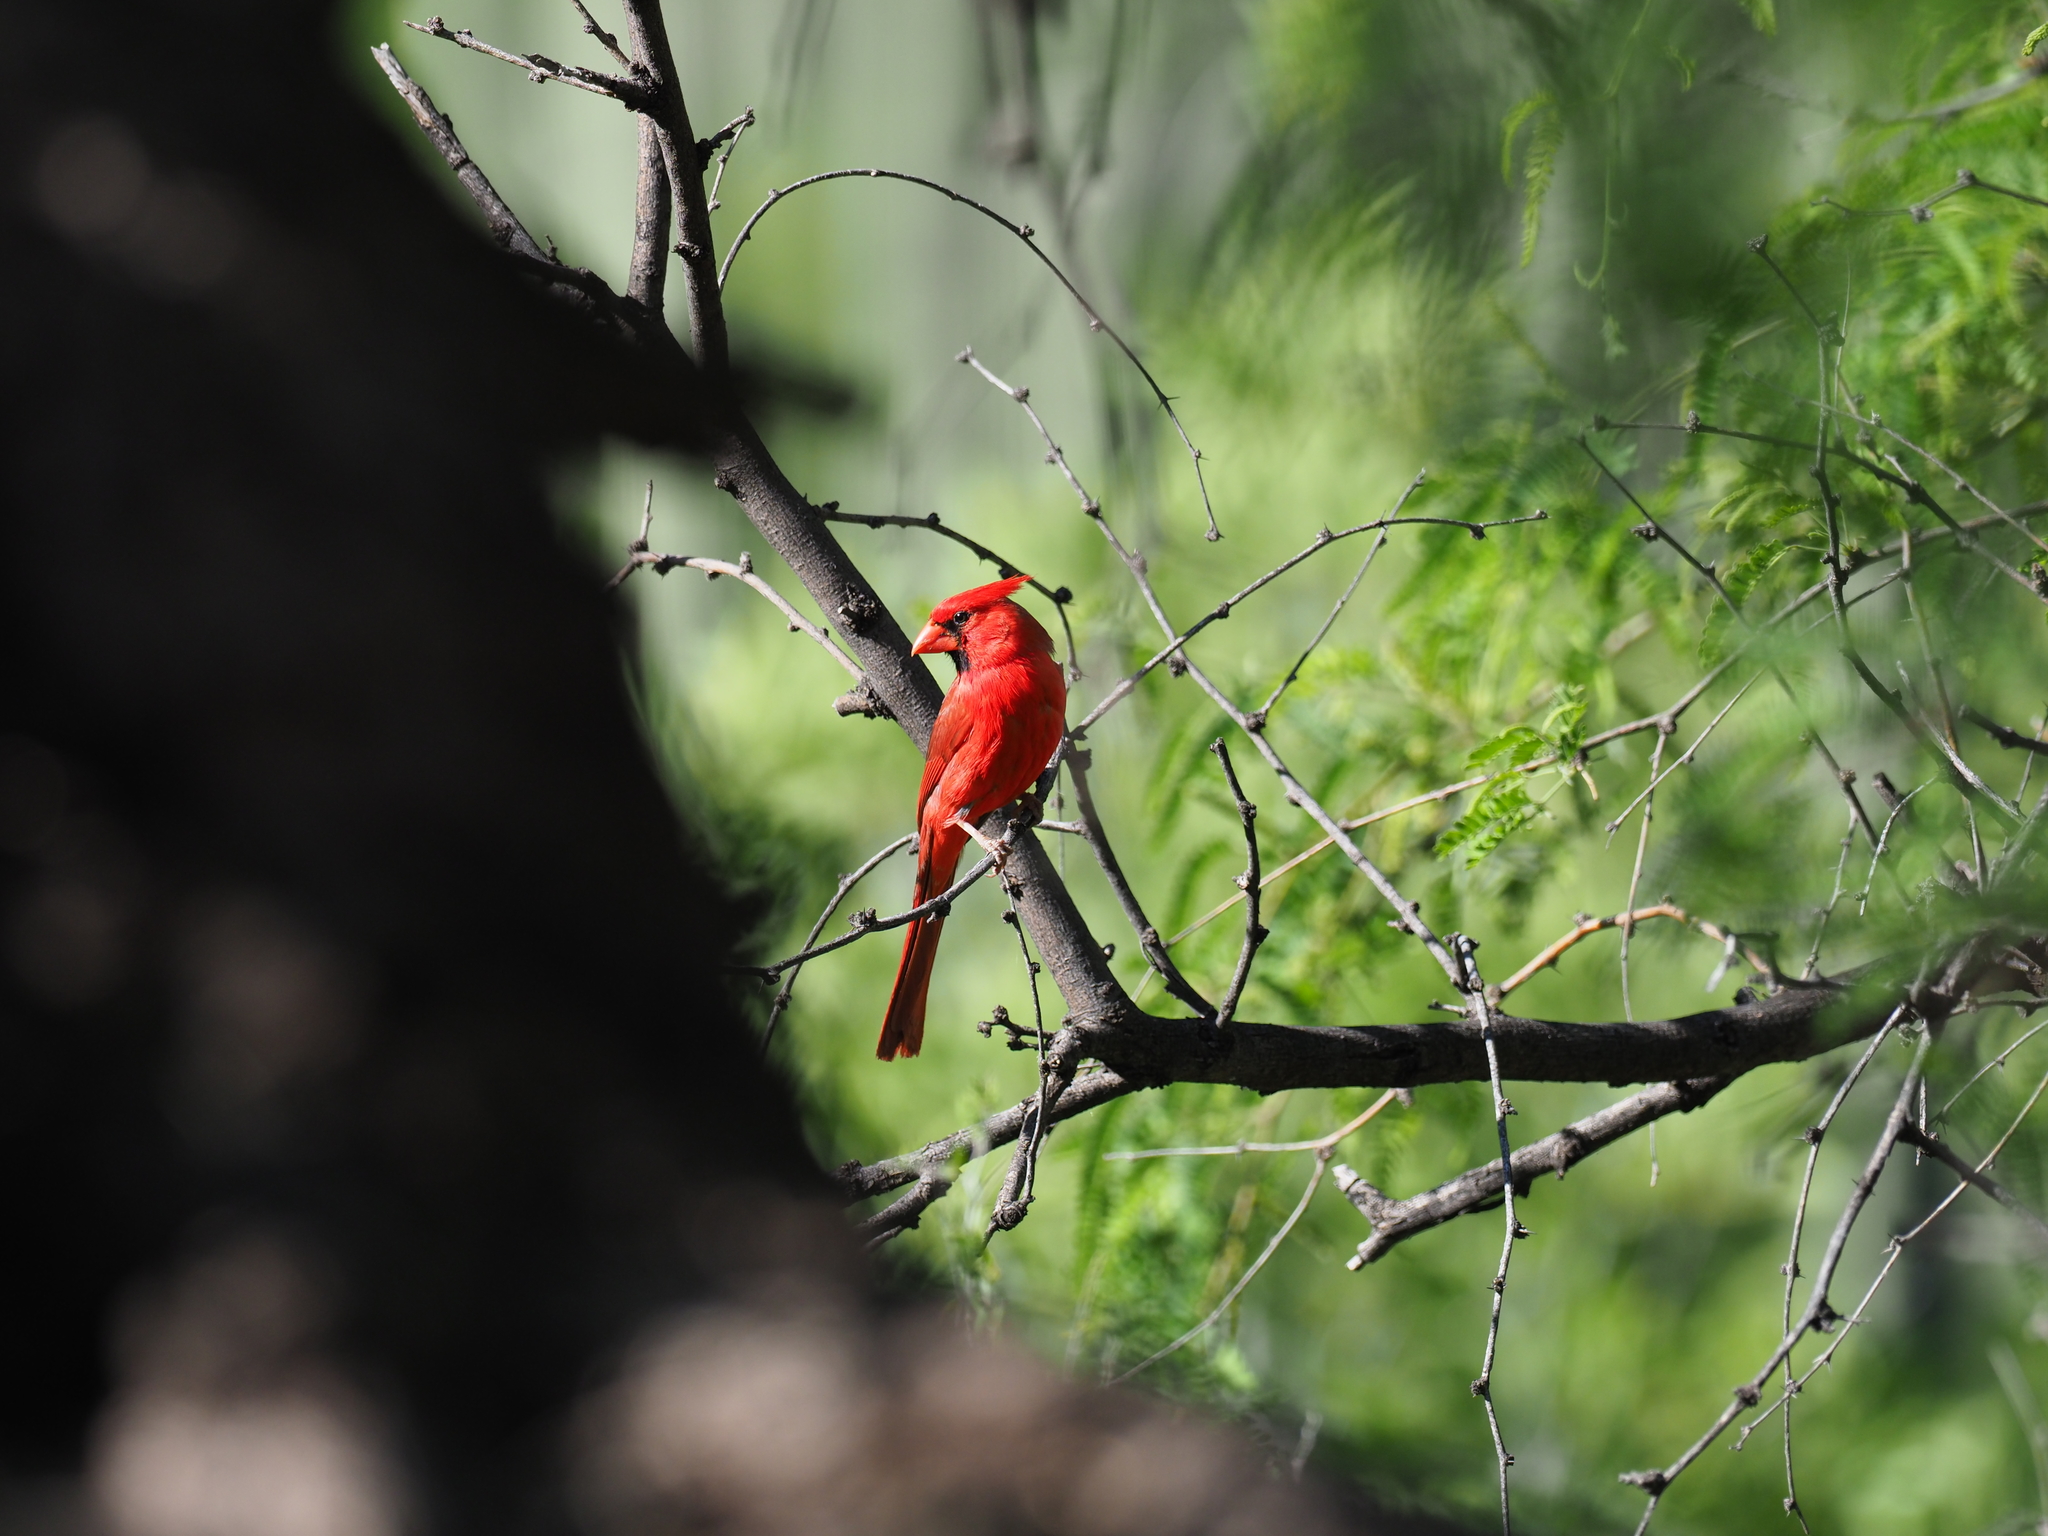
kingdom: Animalia
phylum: Chordata
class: Aves
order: Passeriformes
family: Cardinalidae
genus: Cardinalis
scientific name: Cardinalis cardinalis
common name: Northern cardinal
